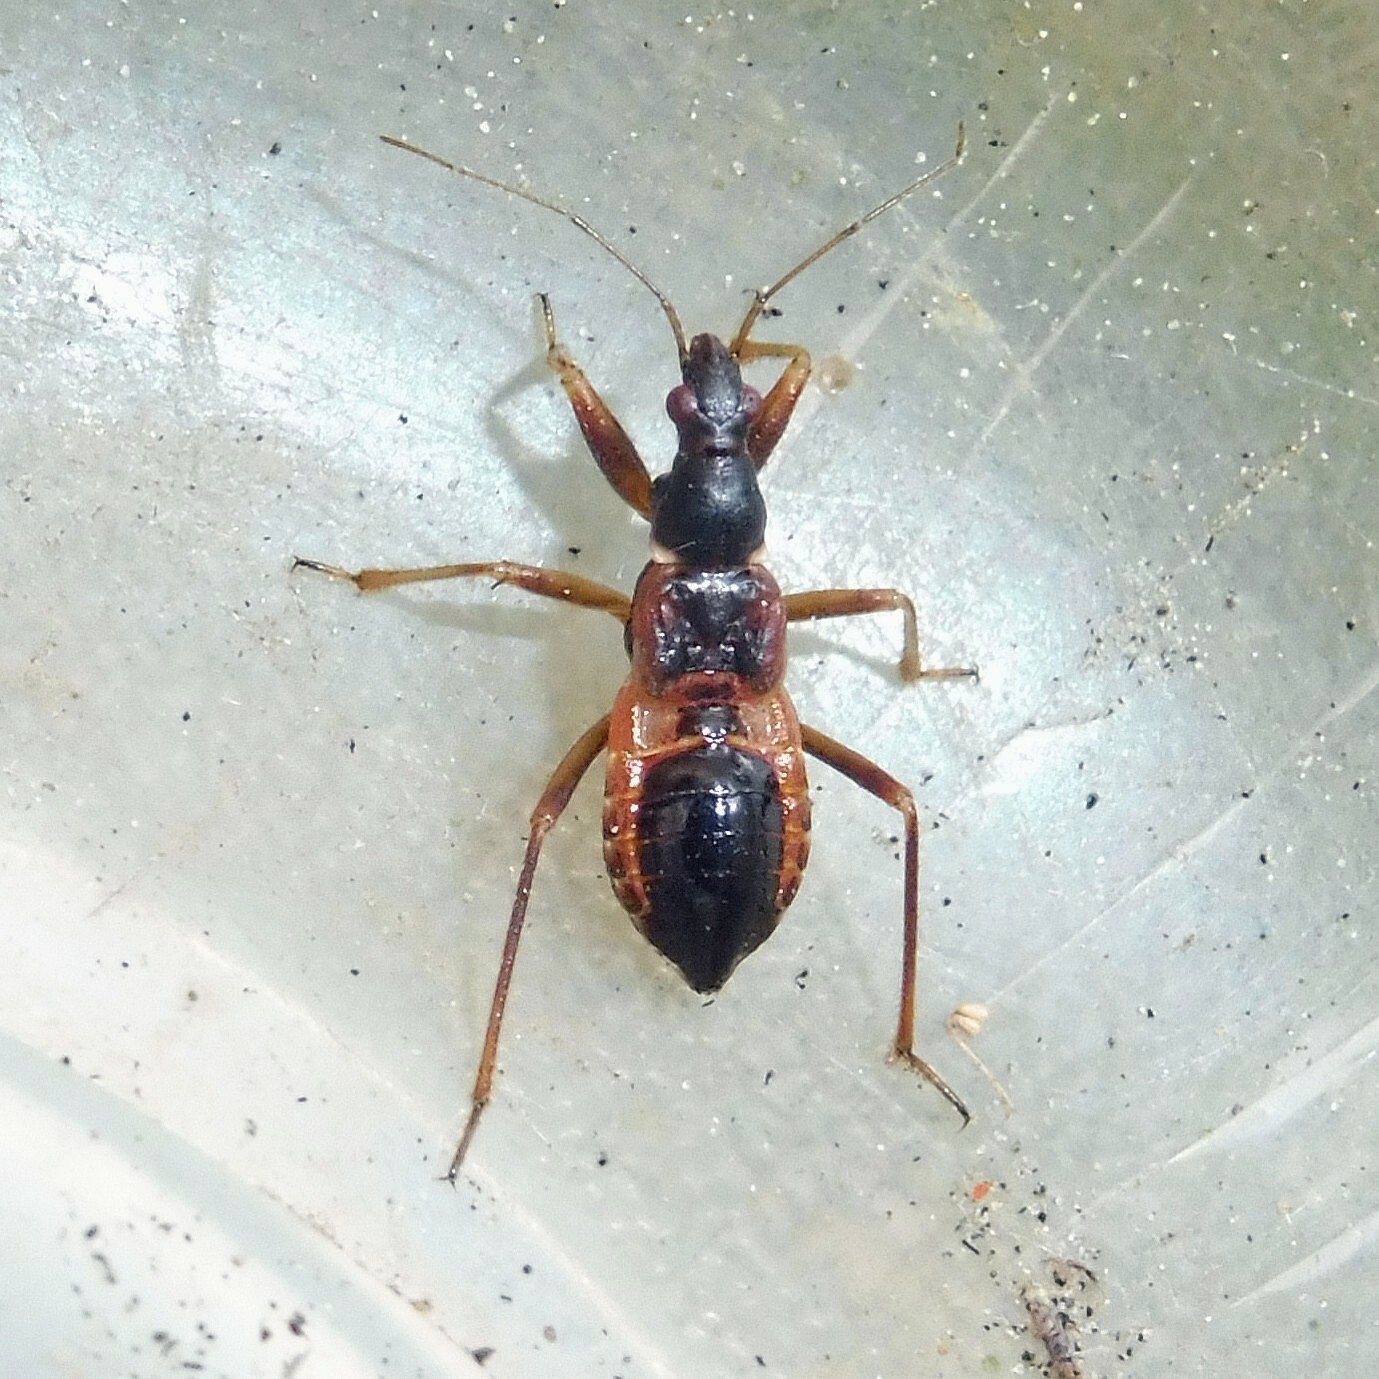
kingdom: Animalia
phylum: Arthropoda
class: Insecta
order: Hemiptera
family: Nabidae
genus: Himacerus
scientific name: Himacerus mirmicoides
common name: Ant damsel bug
